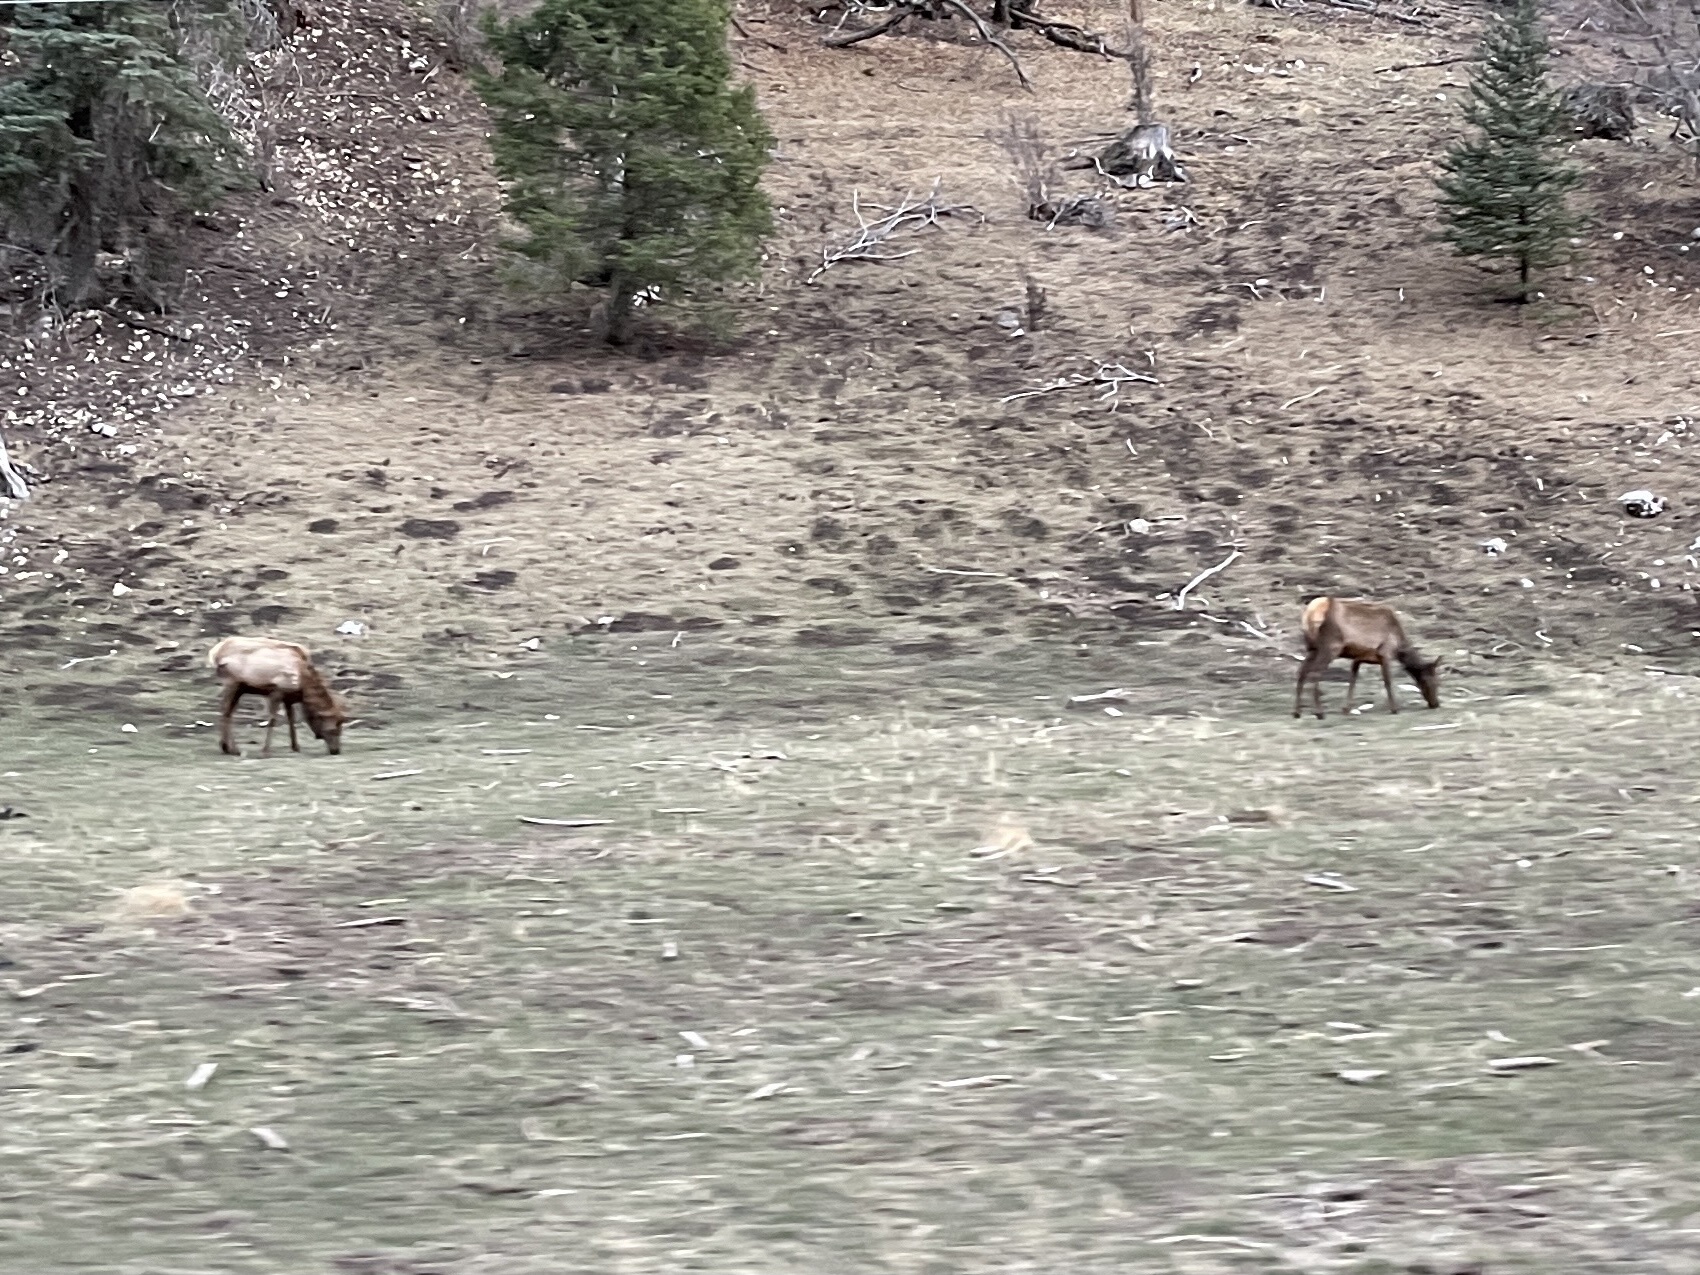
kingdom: Animalia
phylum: Chordata
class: Mammalia
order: Artiodactyla
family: Cervidae
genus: Cervus
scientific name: Cervus elaphus
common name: Red deer
